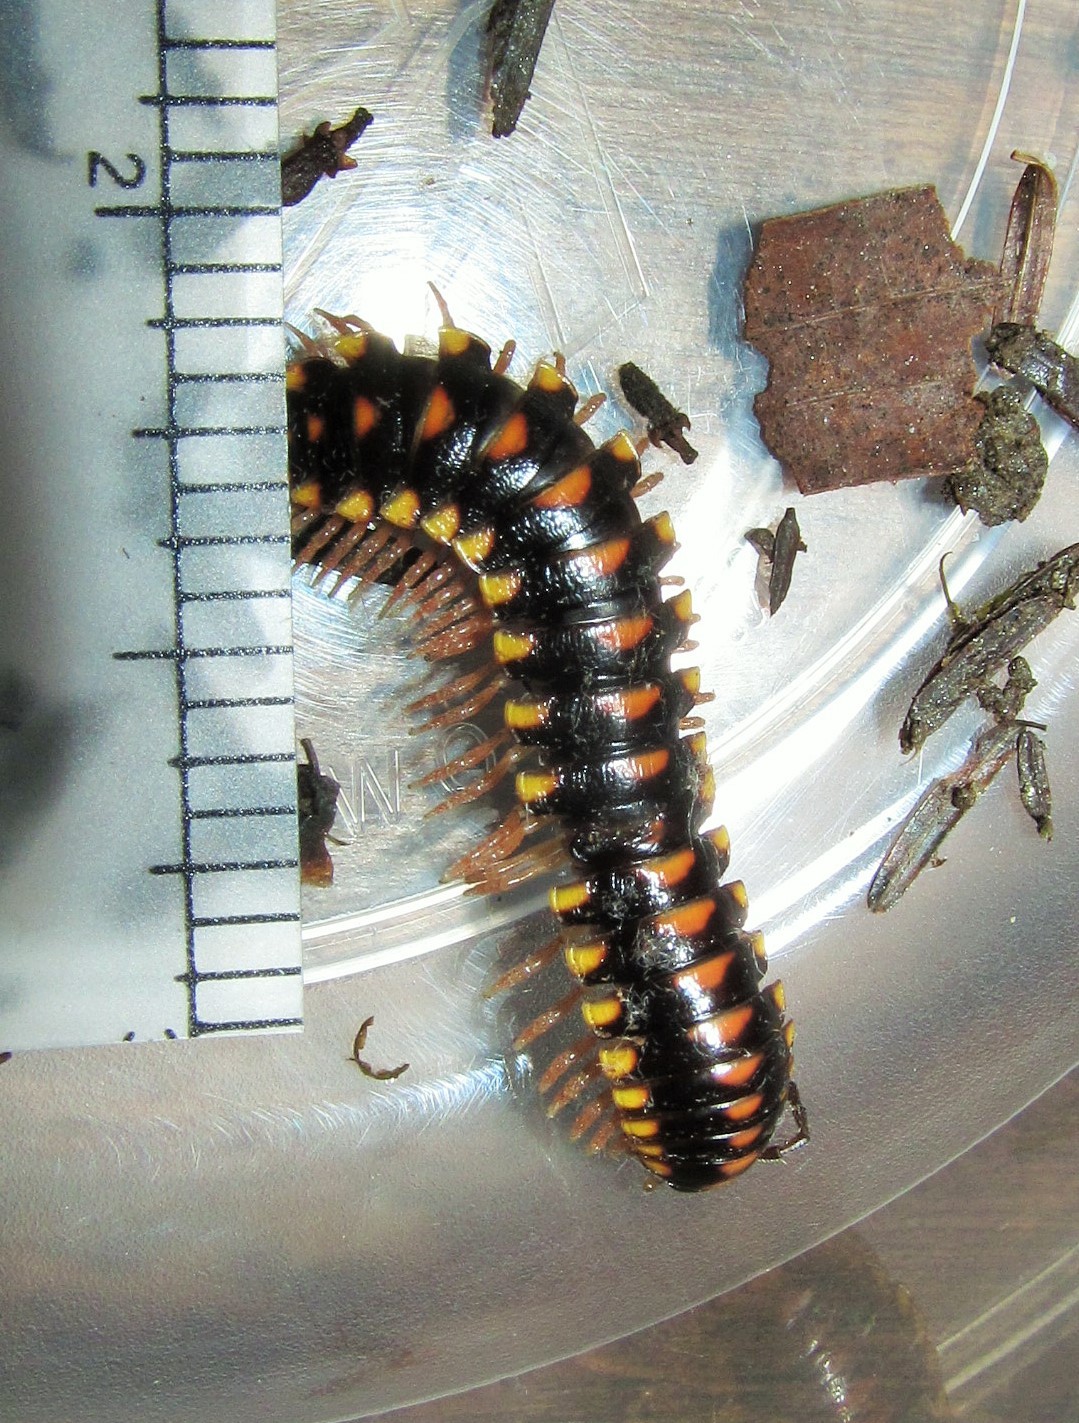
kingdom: Animalia
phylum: Arthropoda
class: Diplopoda
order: Polydesmida
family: Xystodesmidae
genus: Cherokia
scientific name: Cherokia georgiana
